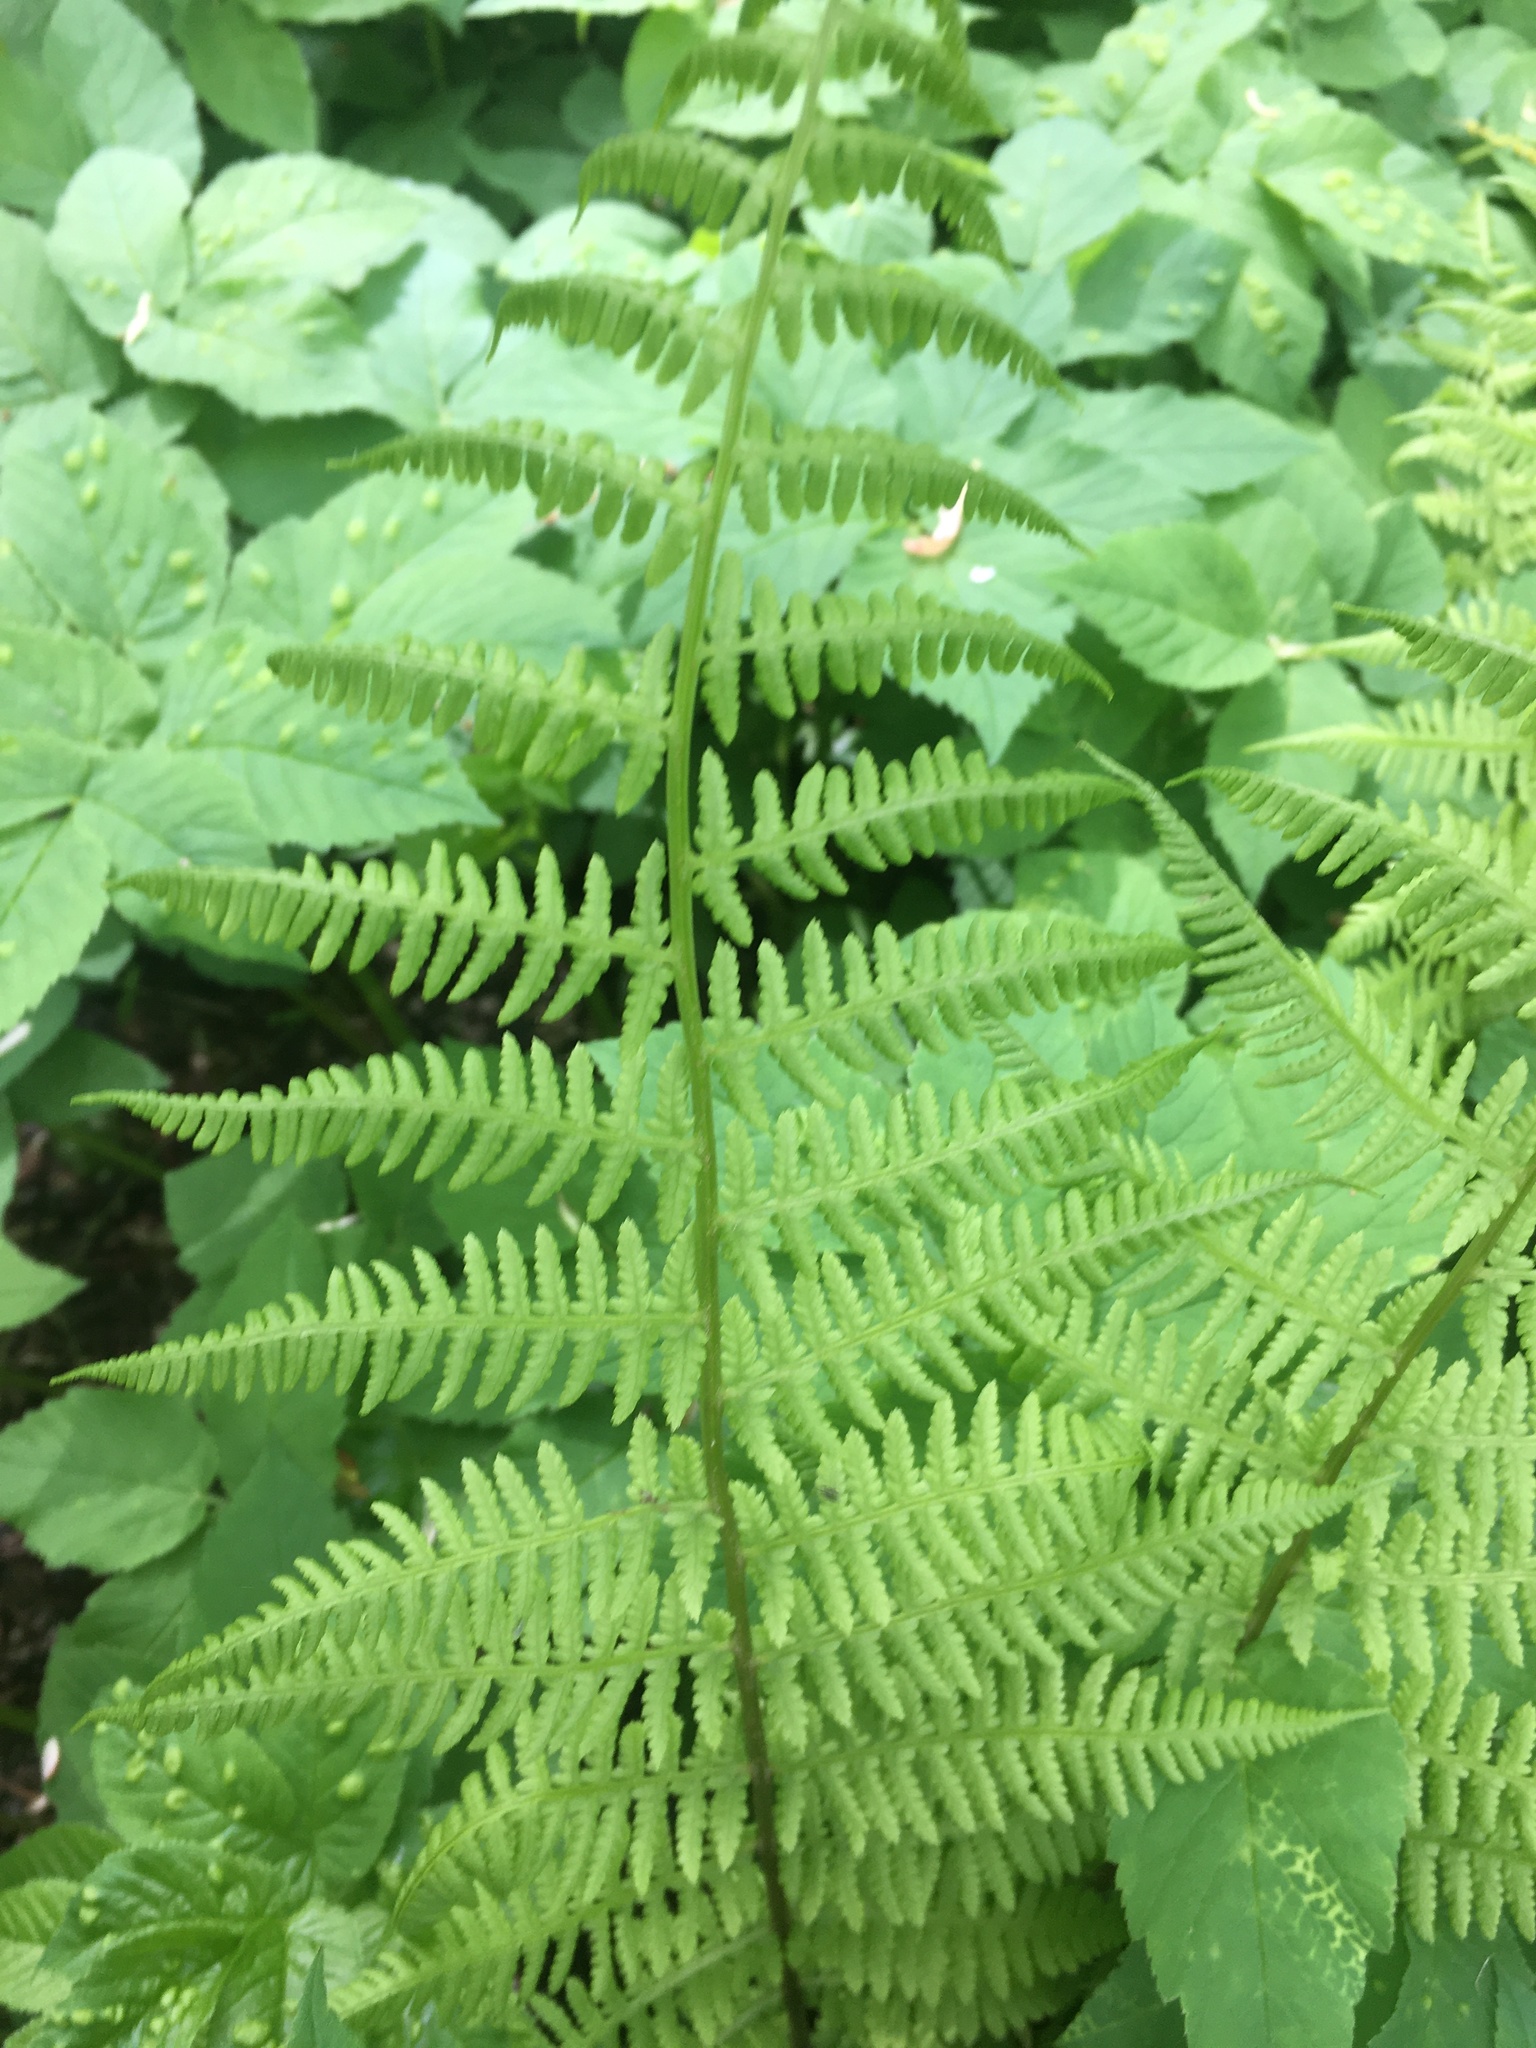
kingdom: Plantae
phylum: Tracheophyta
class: Polypodiopsida
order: Polypodiales
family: Athyriaceae
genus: Athyrium
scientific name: Athyrium filix-femina
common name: Lady fern
